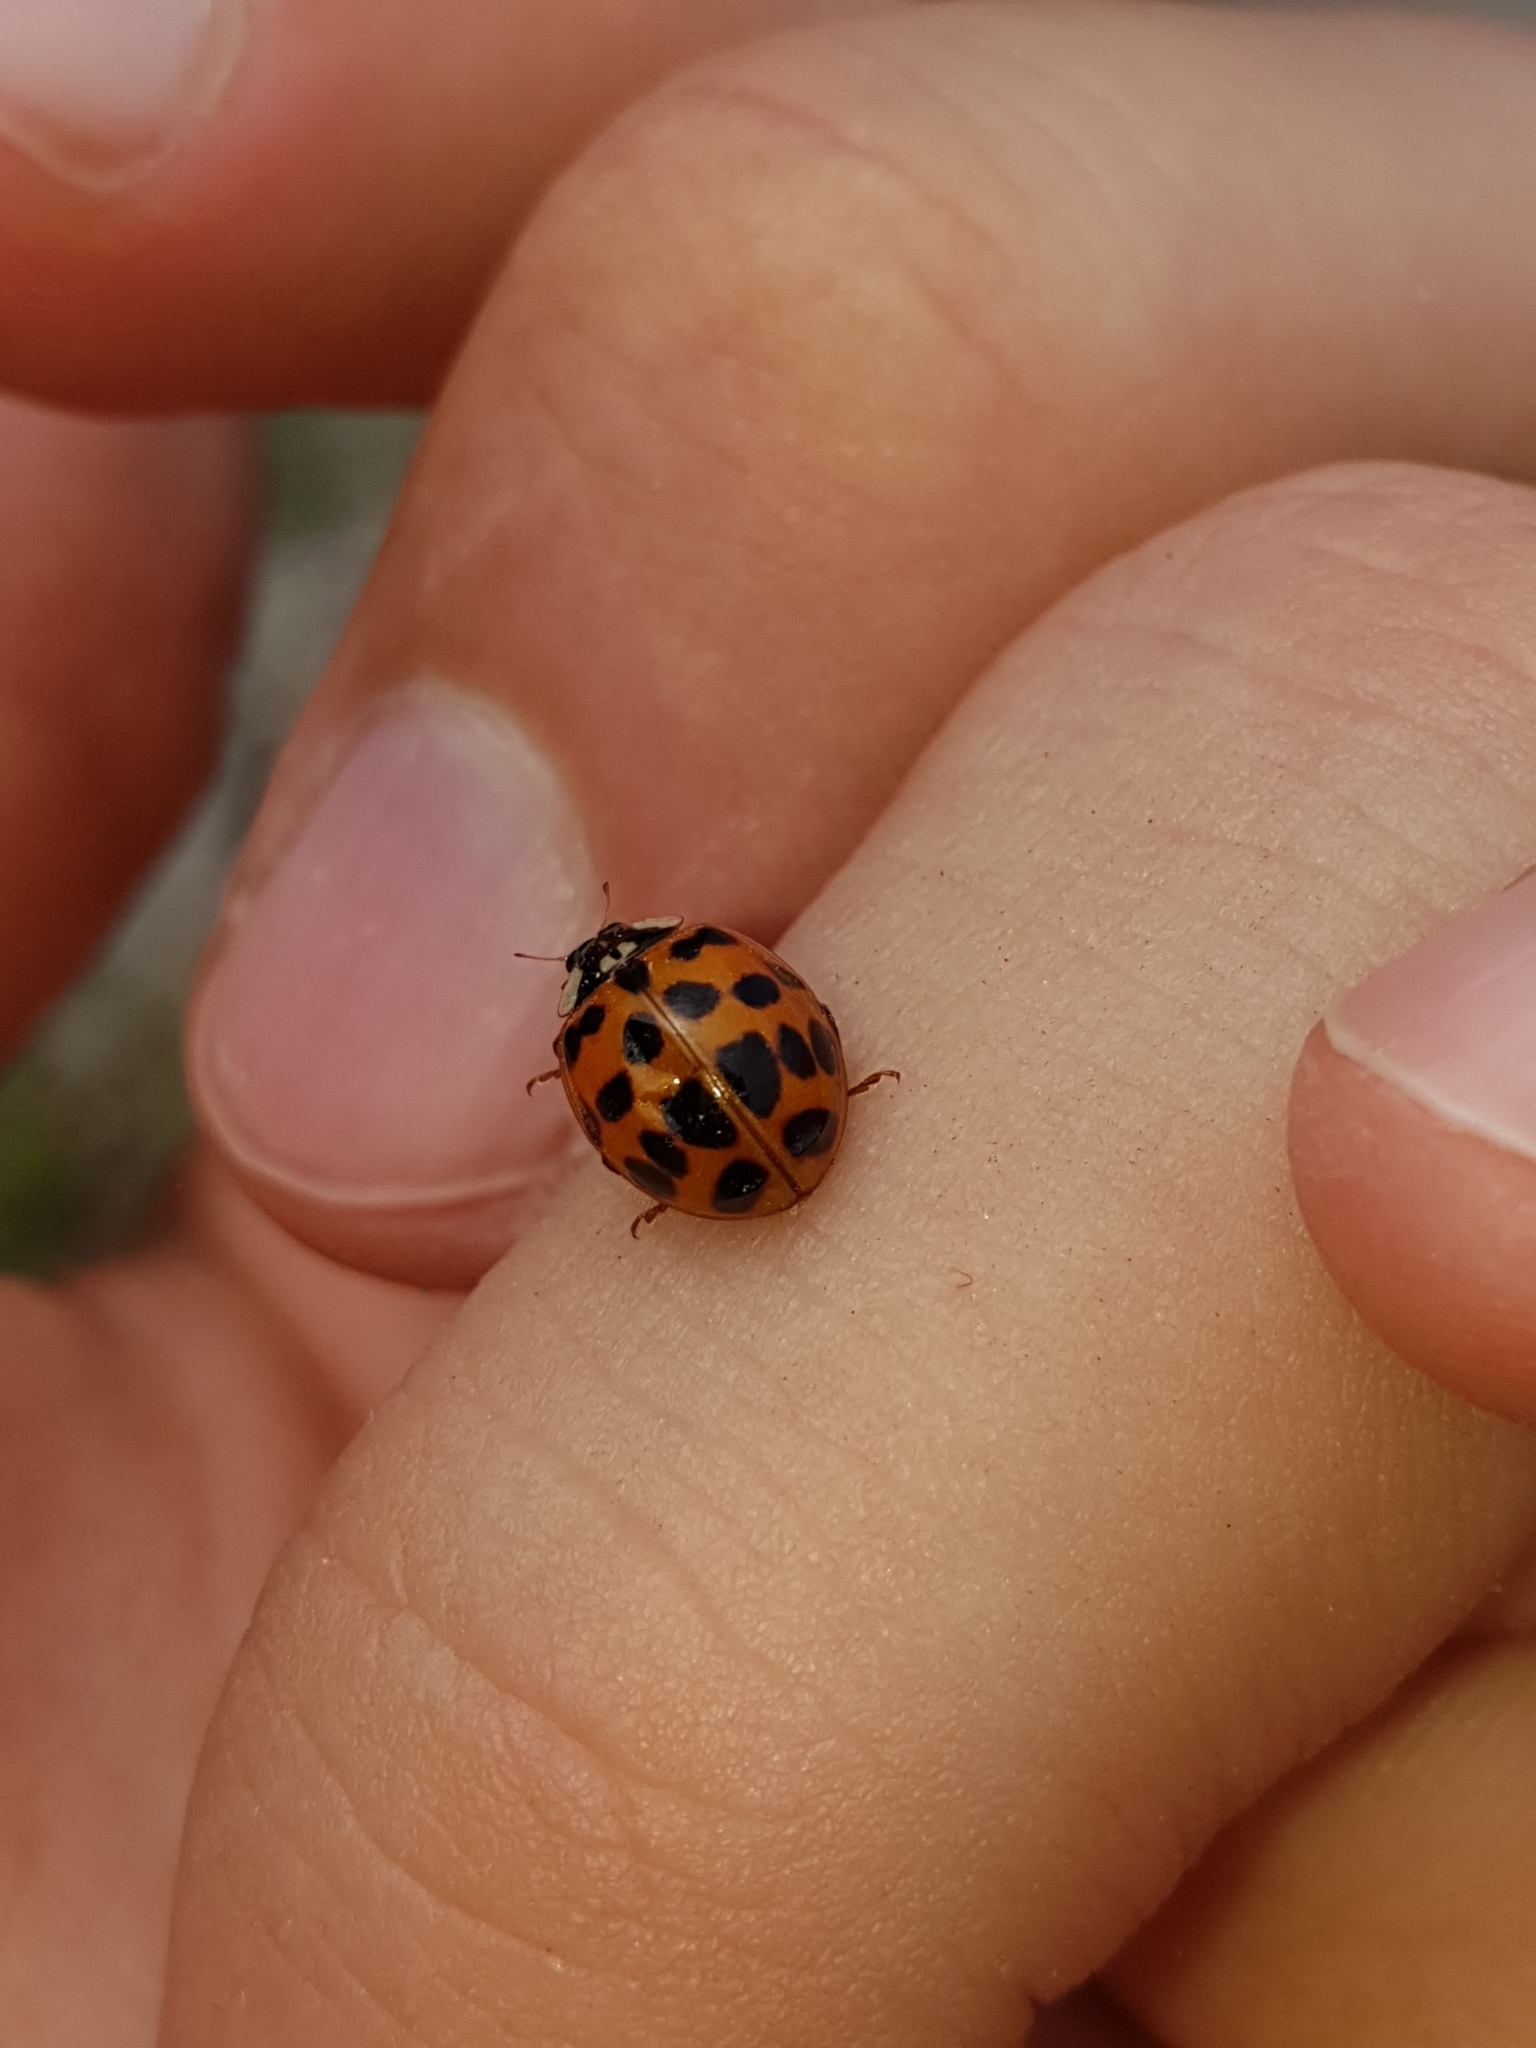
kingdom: Animalia
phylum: Arthropoda
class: Insecta
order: Coleoptera
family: Coccinellidae
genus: Harmonia
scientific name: Harmonia axyridis
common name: Harlequin ladybird
